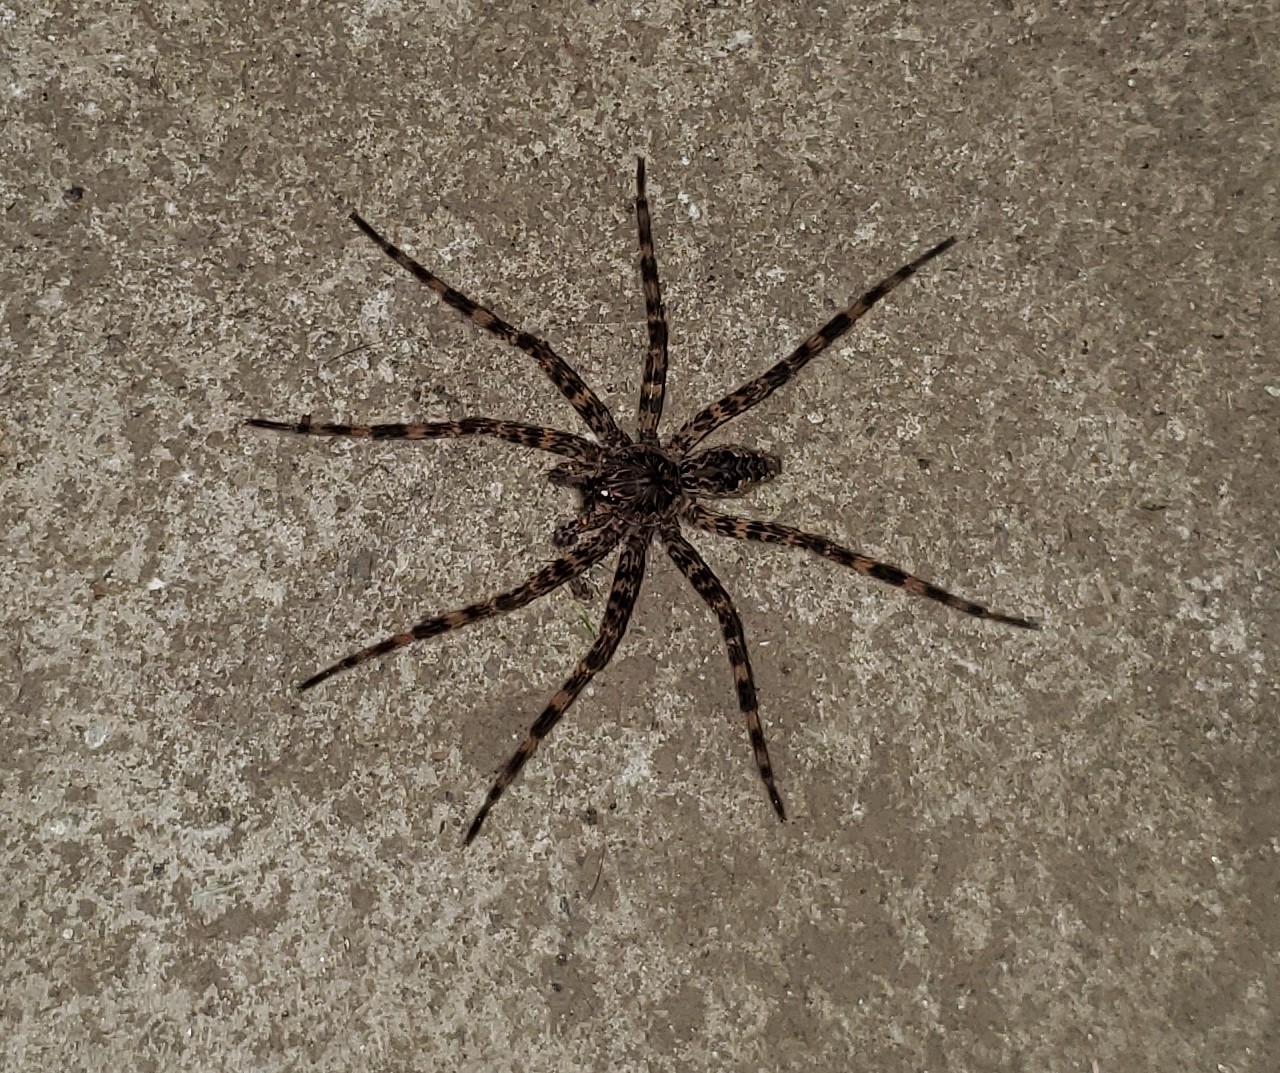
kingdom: Animalia
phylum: Arthropoda
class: Arachnida
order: Araneae
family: Pisauridae
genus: Dolomedes
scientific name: Dolomedes tenebrosus
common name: Dark fishing spider
